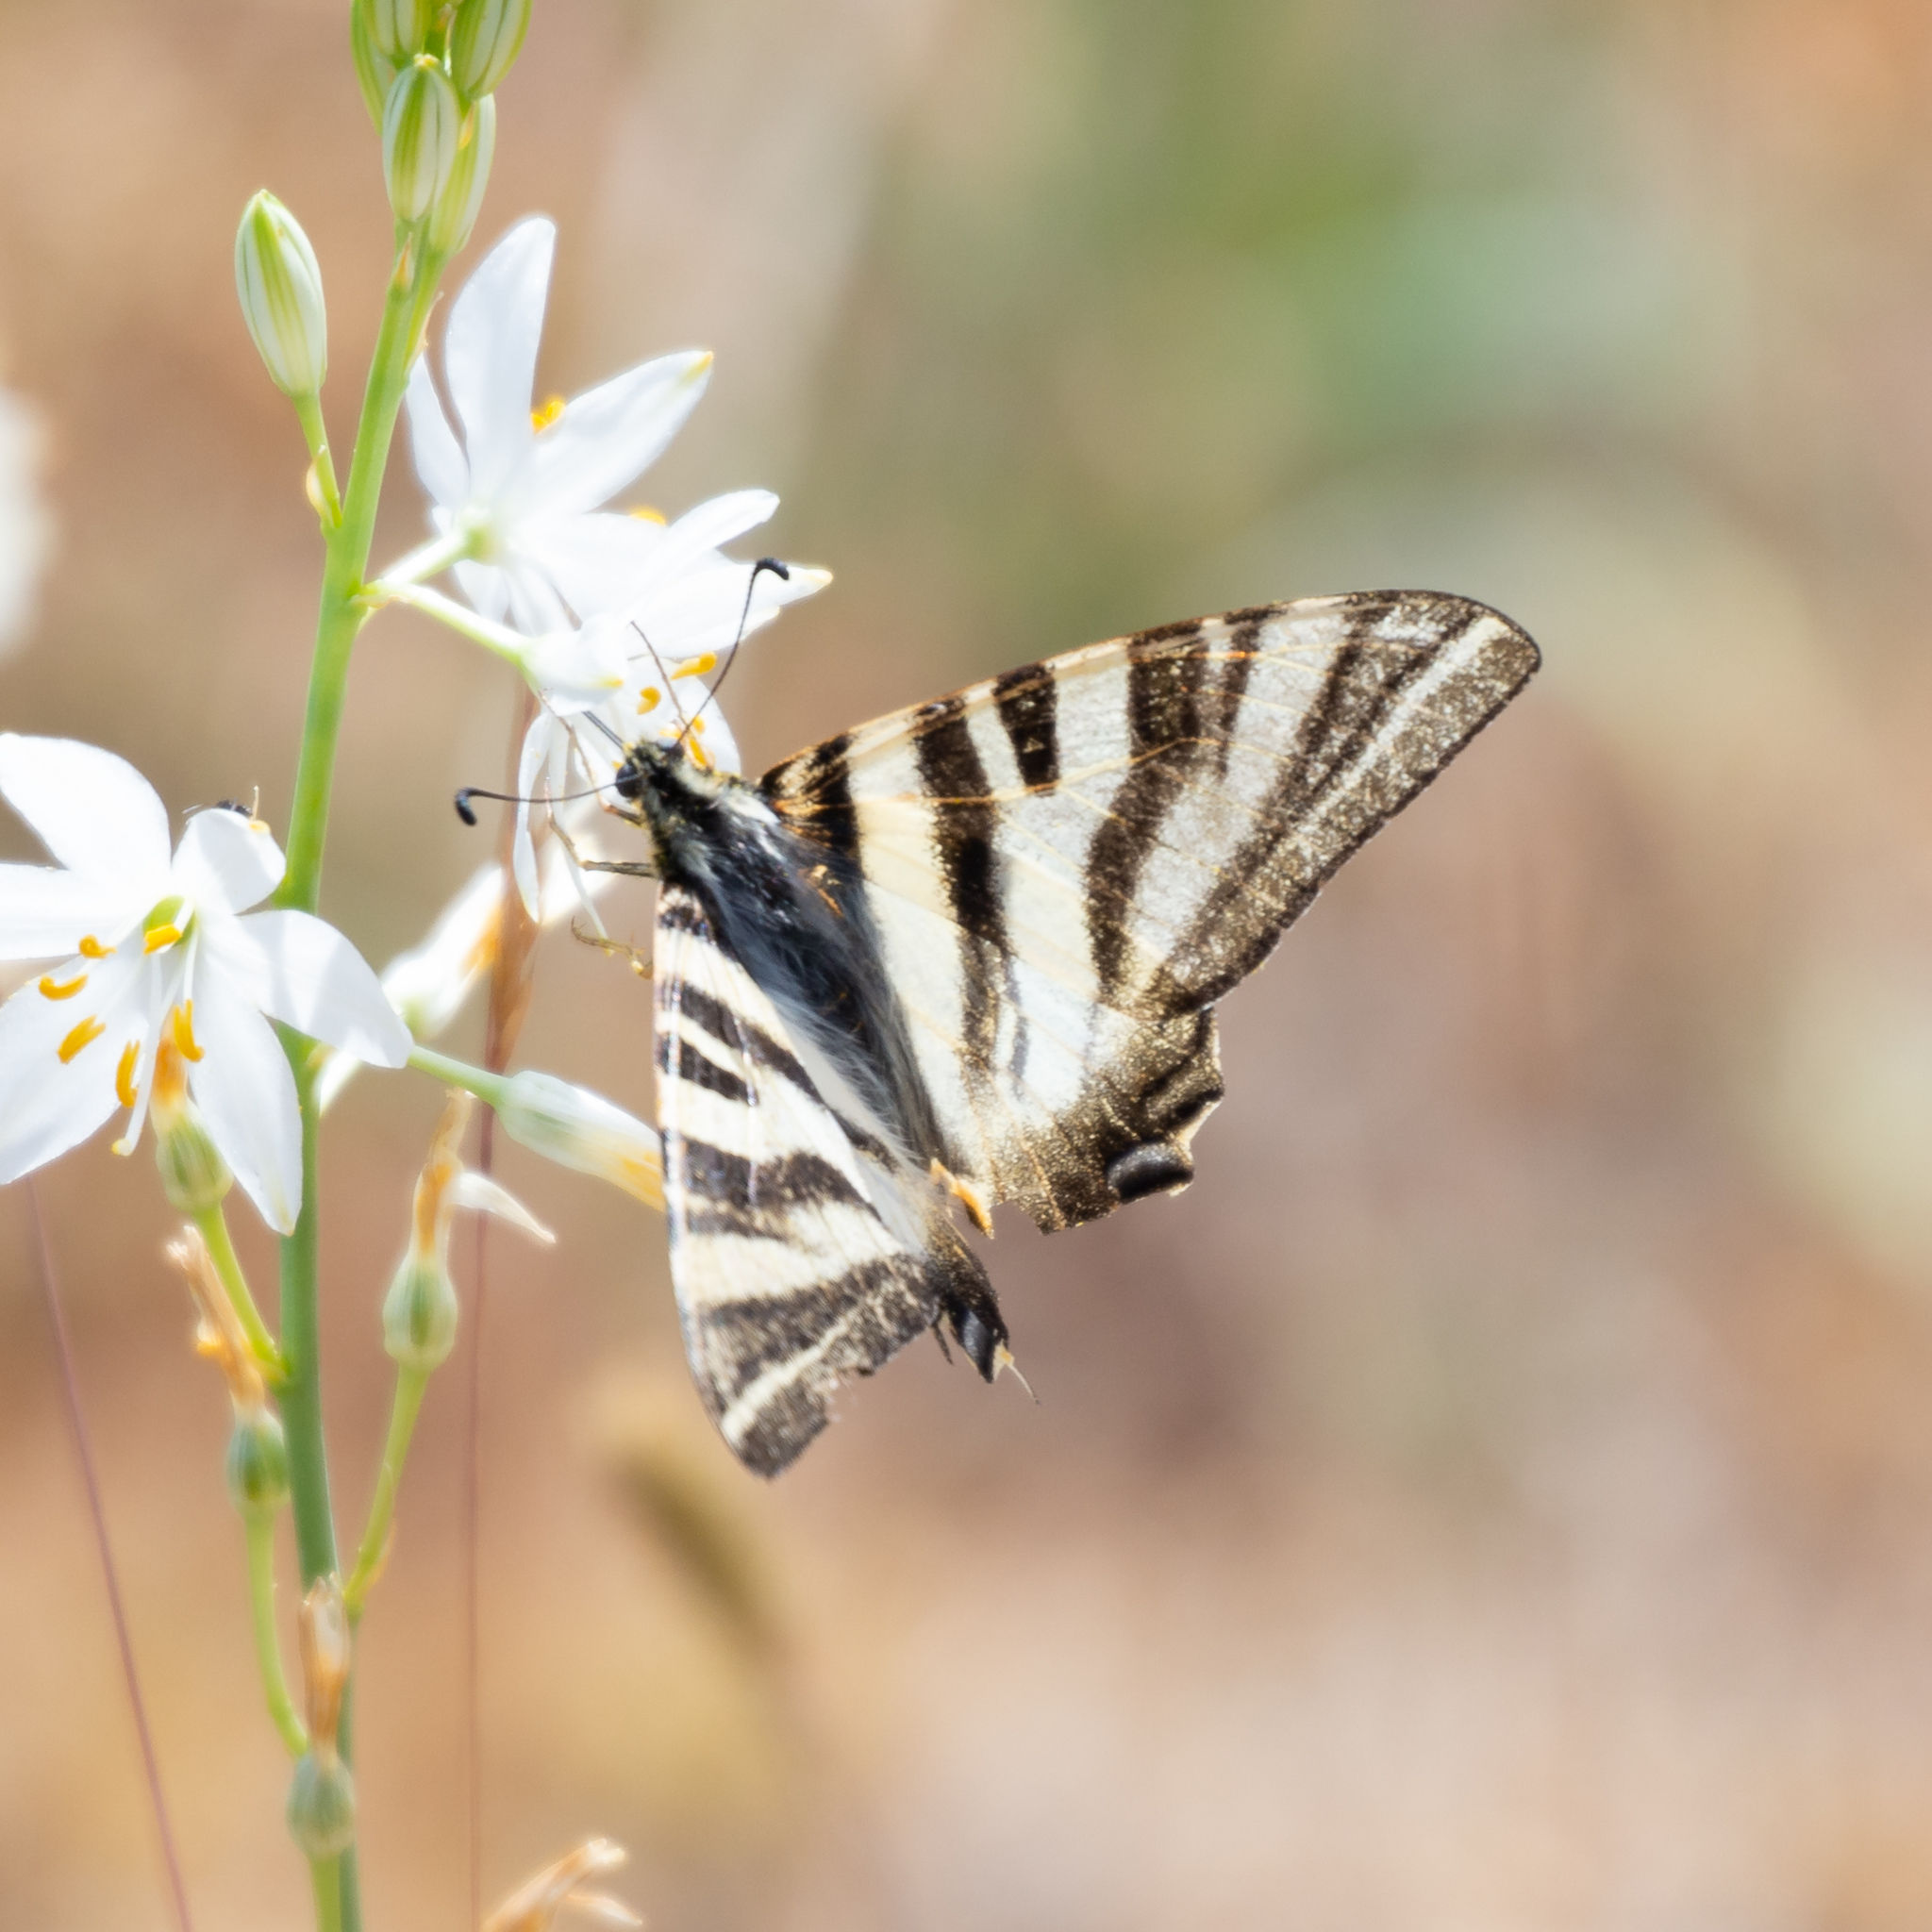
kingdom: Animalia
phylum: Arthropoda
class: Insecta
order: Lepidoptera
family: Papilionidae
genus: Iphiclides
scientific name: Iphiclides feisthamelii
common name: Iberian scarce swallowtail
